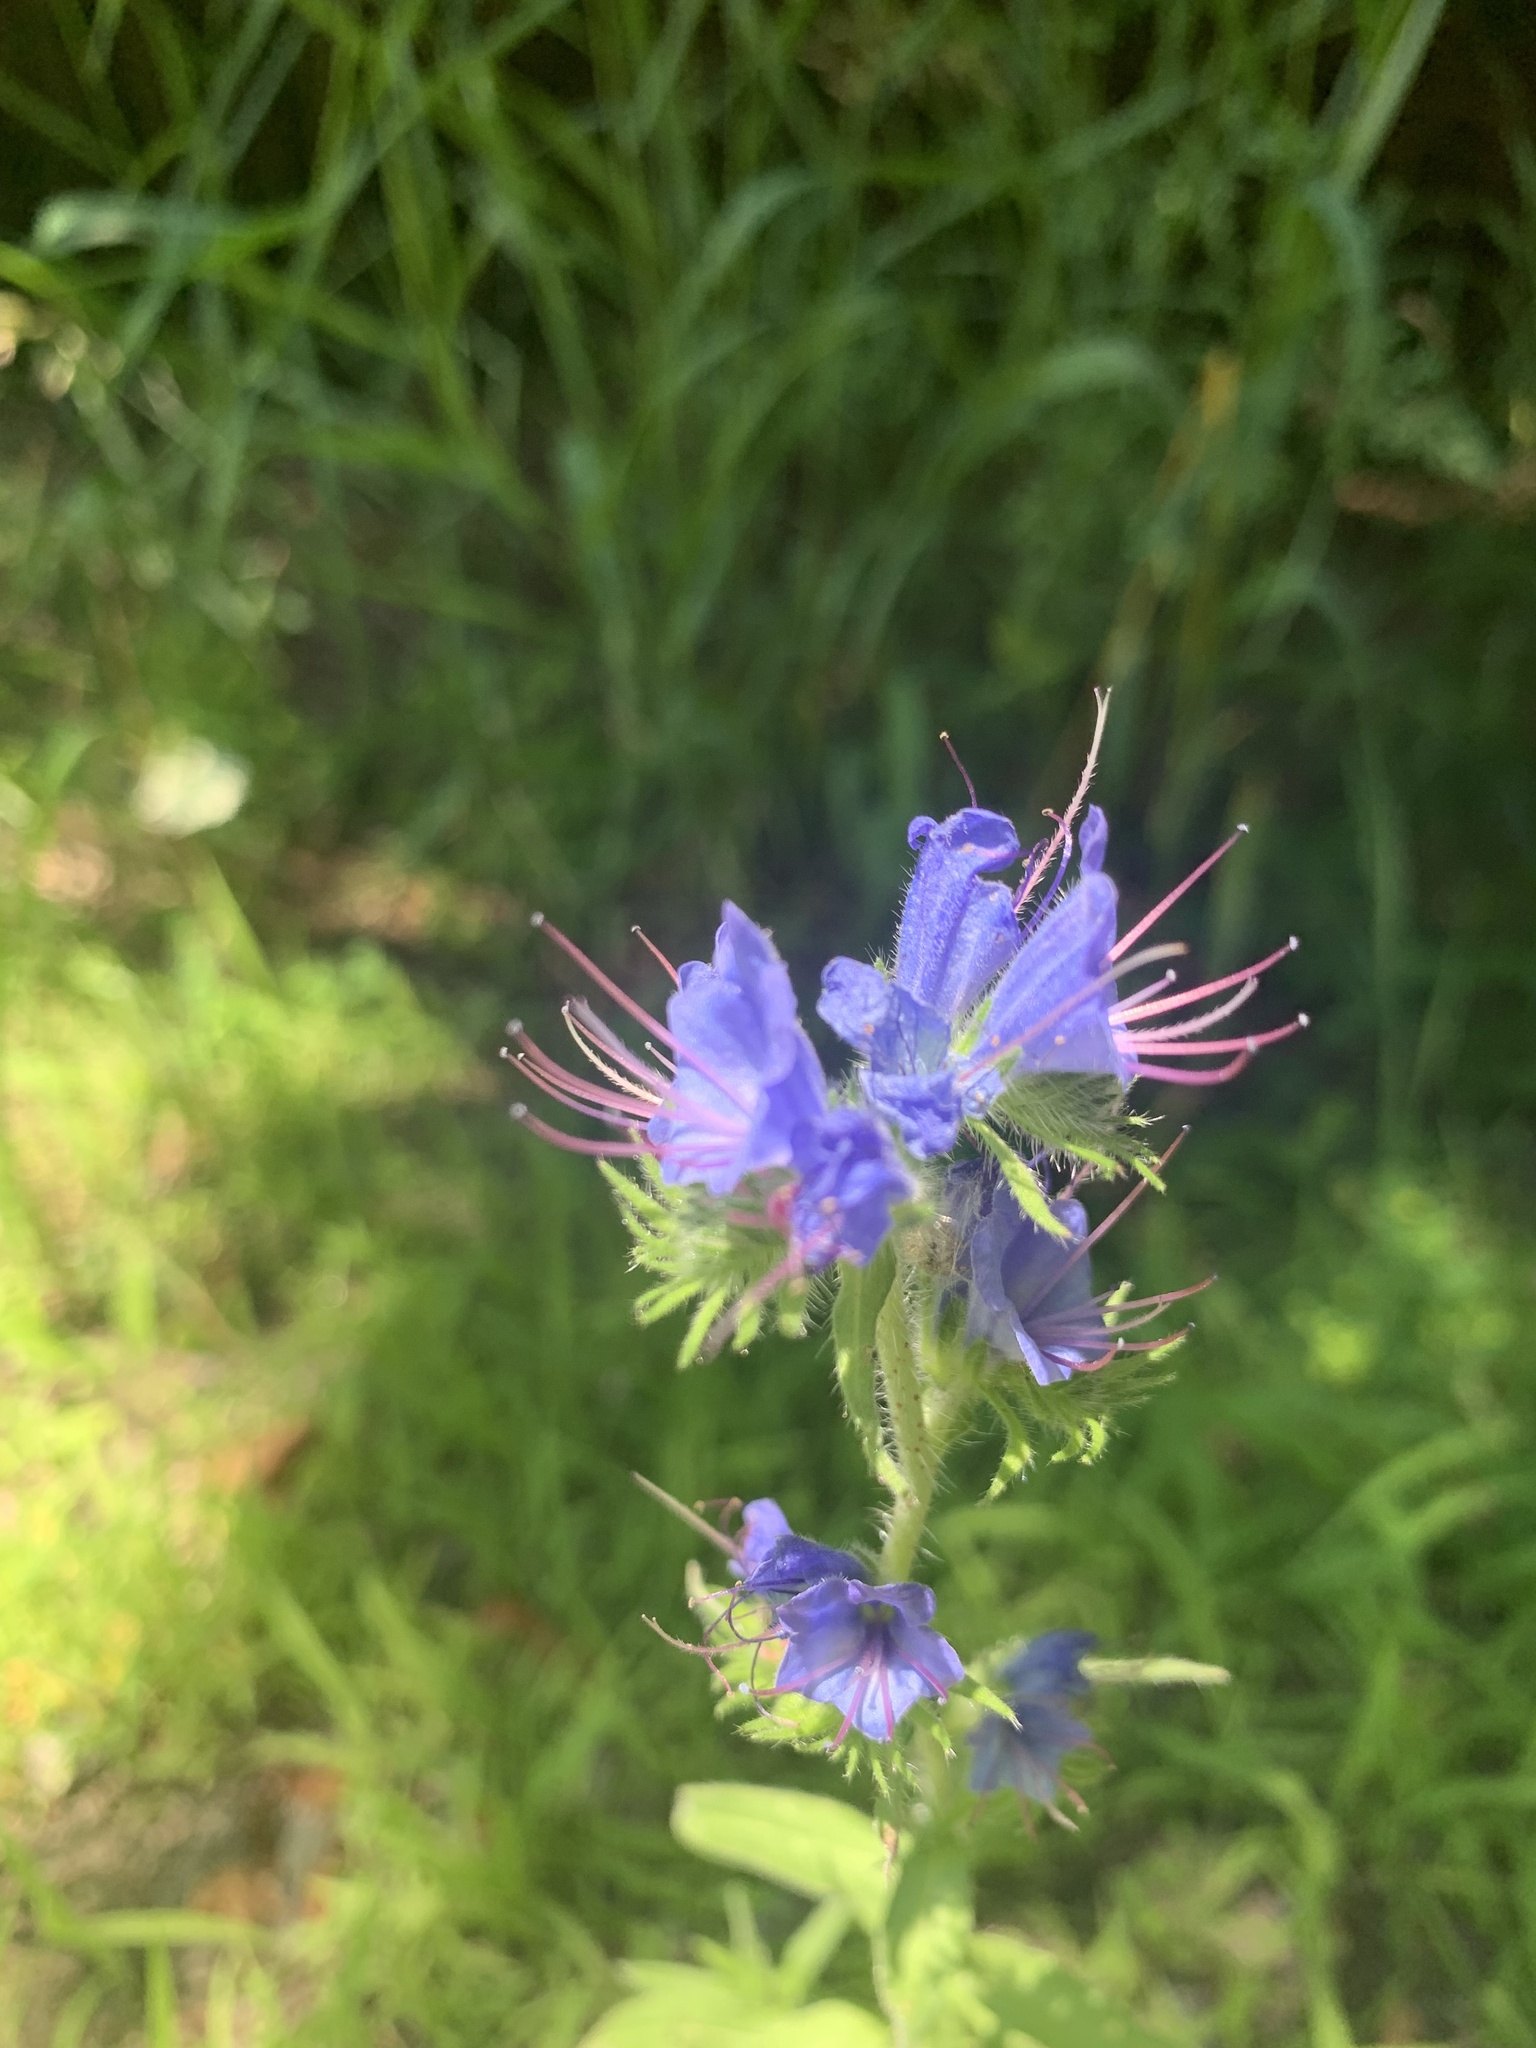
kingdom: Plantae
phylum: Tracheophyta
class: Magnoliopsida
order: Boraginales
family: Boraginaceae
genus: Echium
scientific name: Echium vulgare
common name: Common viper's bugloss
